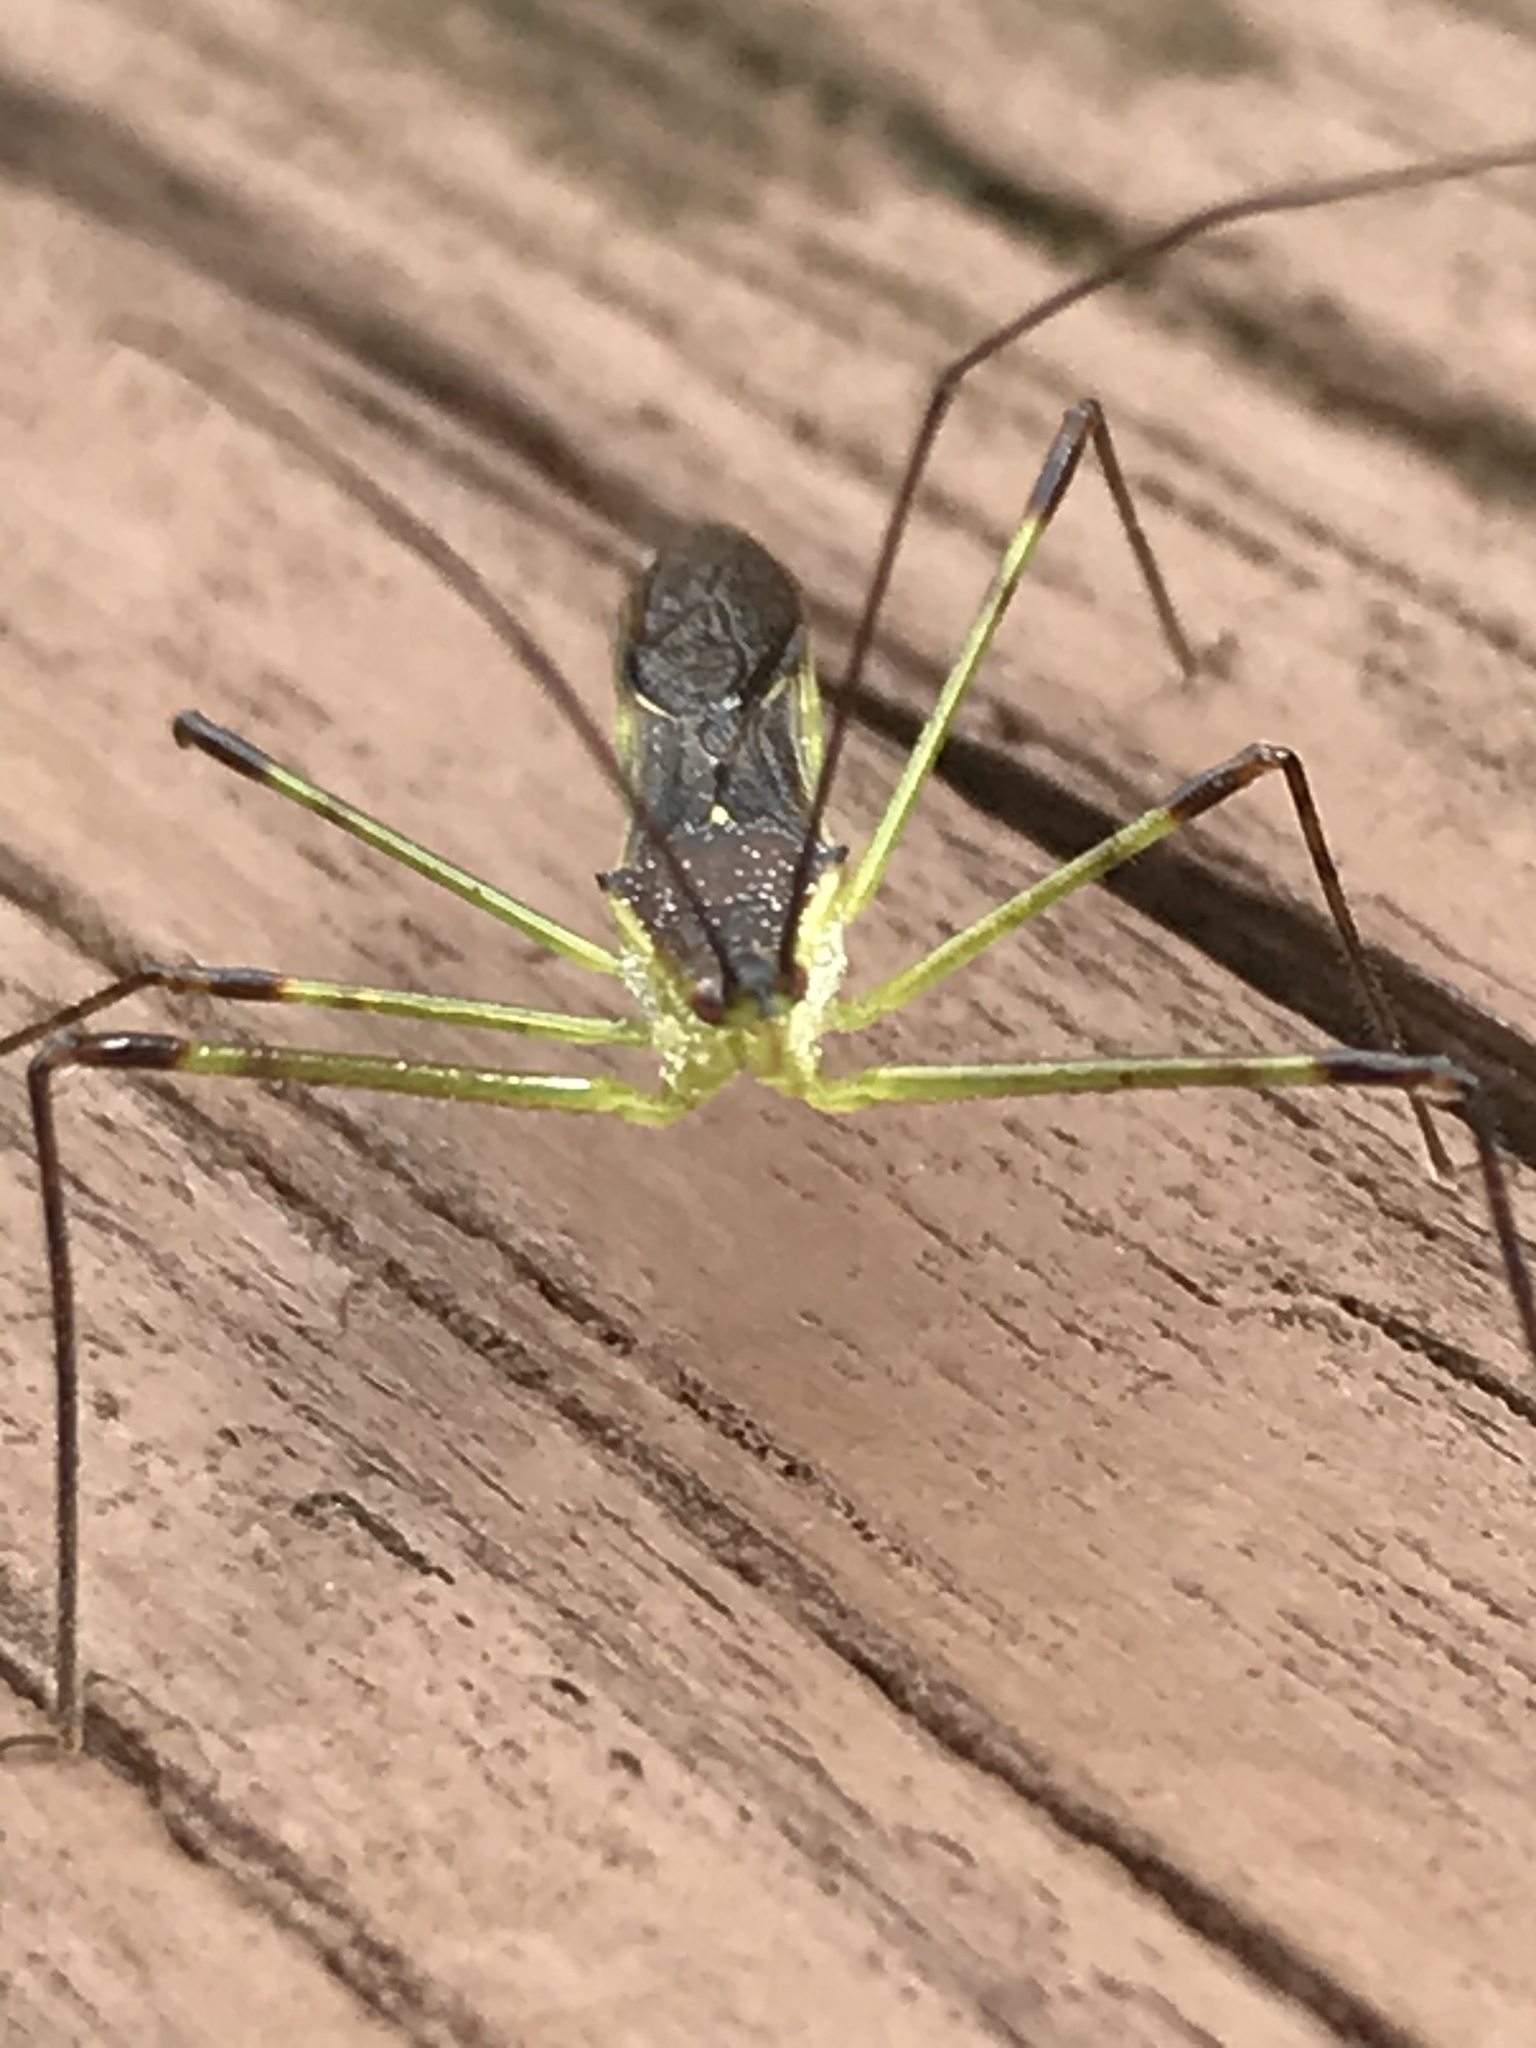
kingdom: Animalia
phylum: Arthropoda
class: Insecta
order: Hemiptera
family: Reduviidae
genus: Zelus
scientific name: Zelus luridus
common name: Pale green assassin bug
